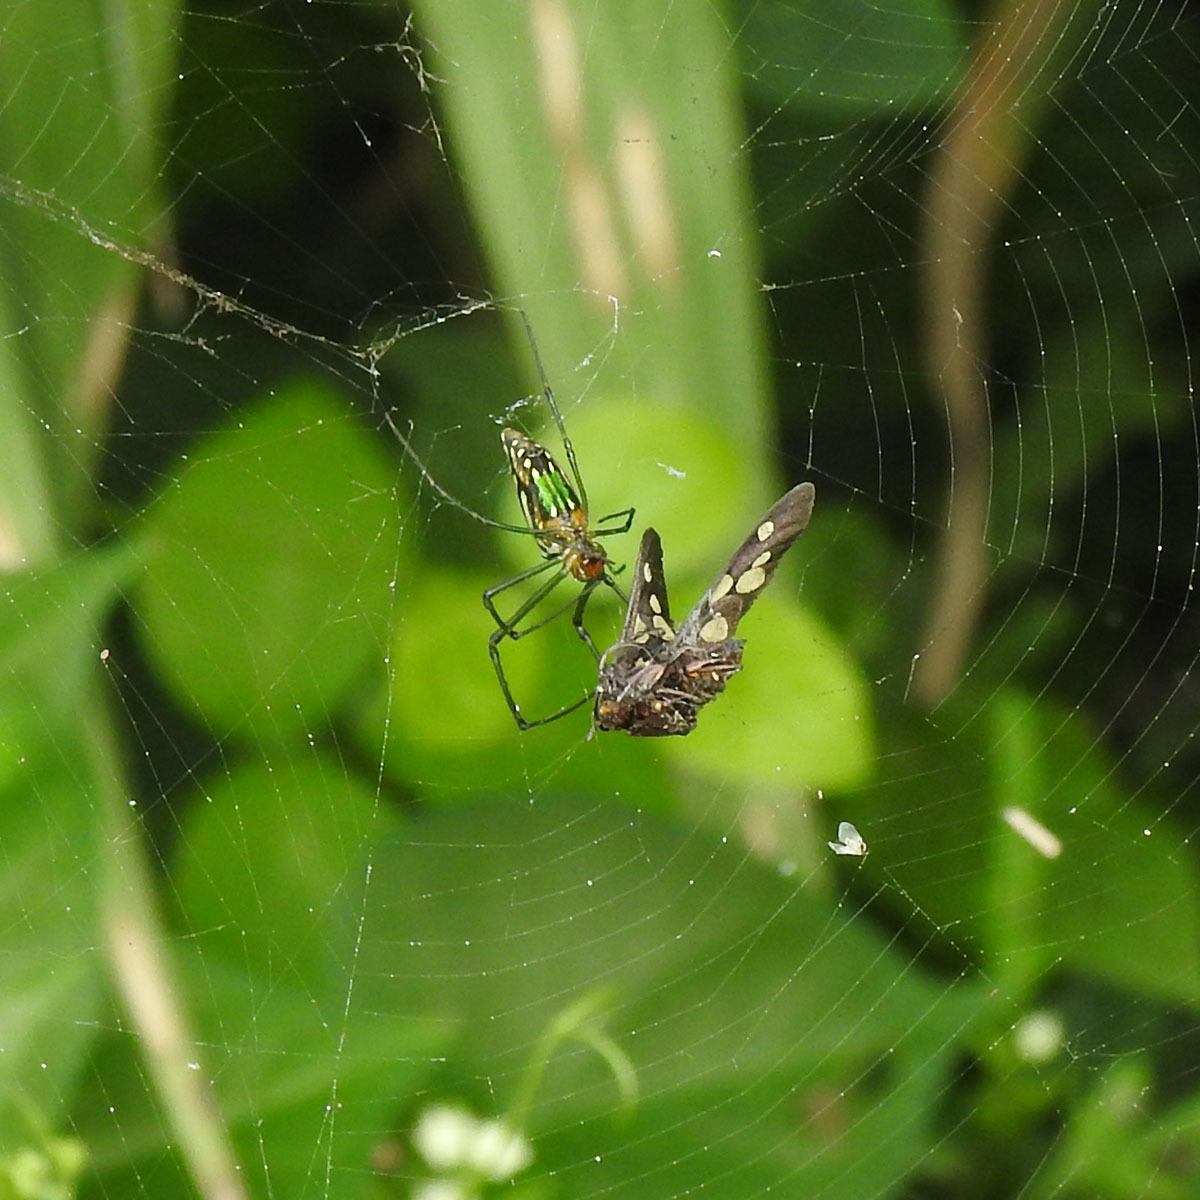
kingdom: Animalia
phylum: Arthropoda
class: Arachnida
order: Araneae
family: Tetragnathidae
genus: Leucauge
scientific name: Leucauge decorata
